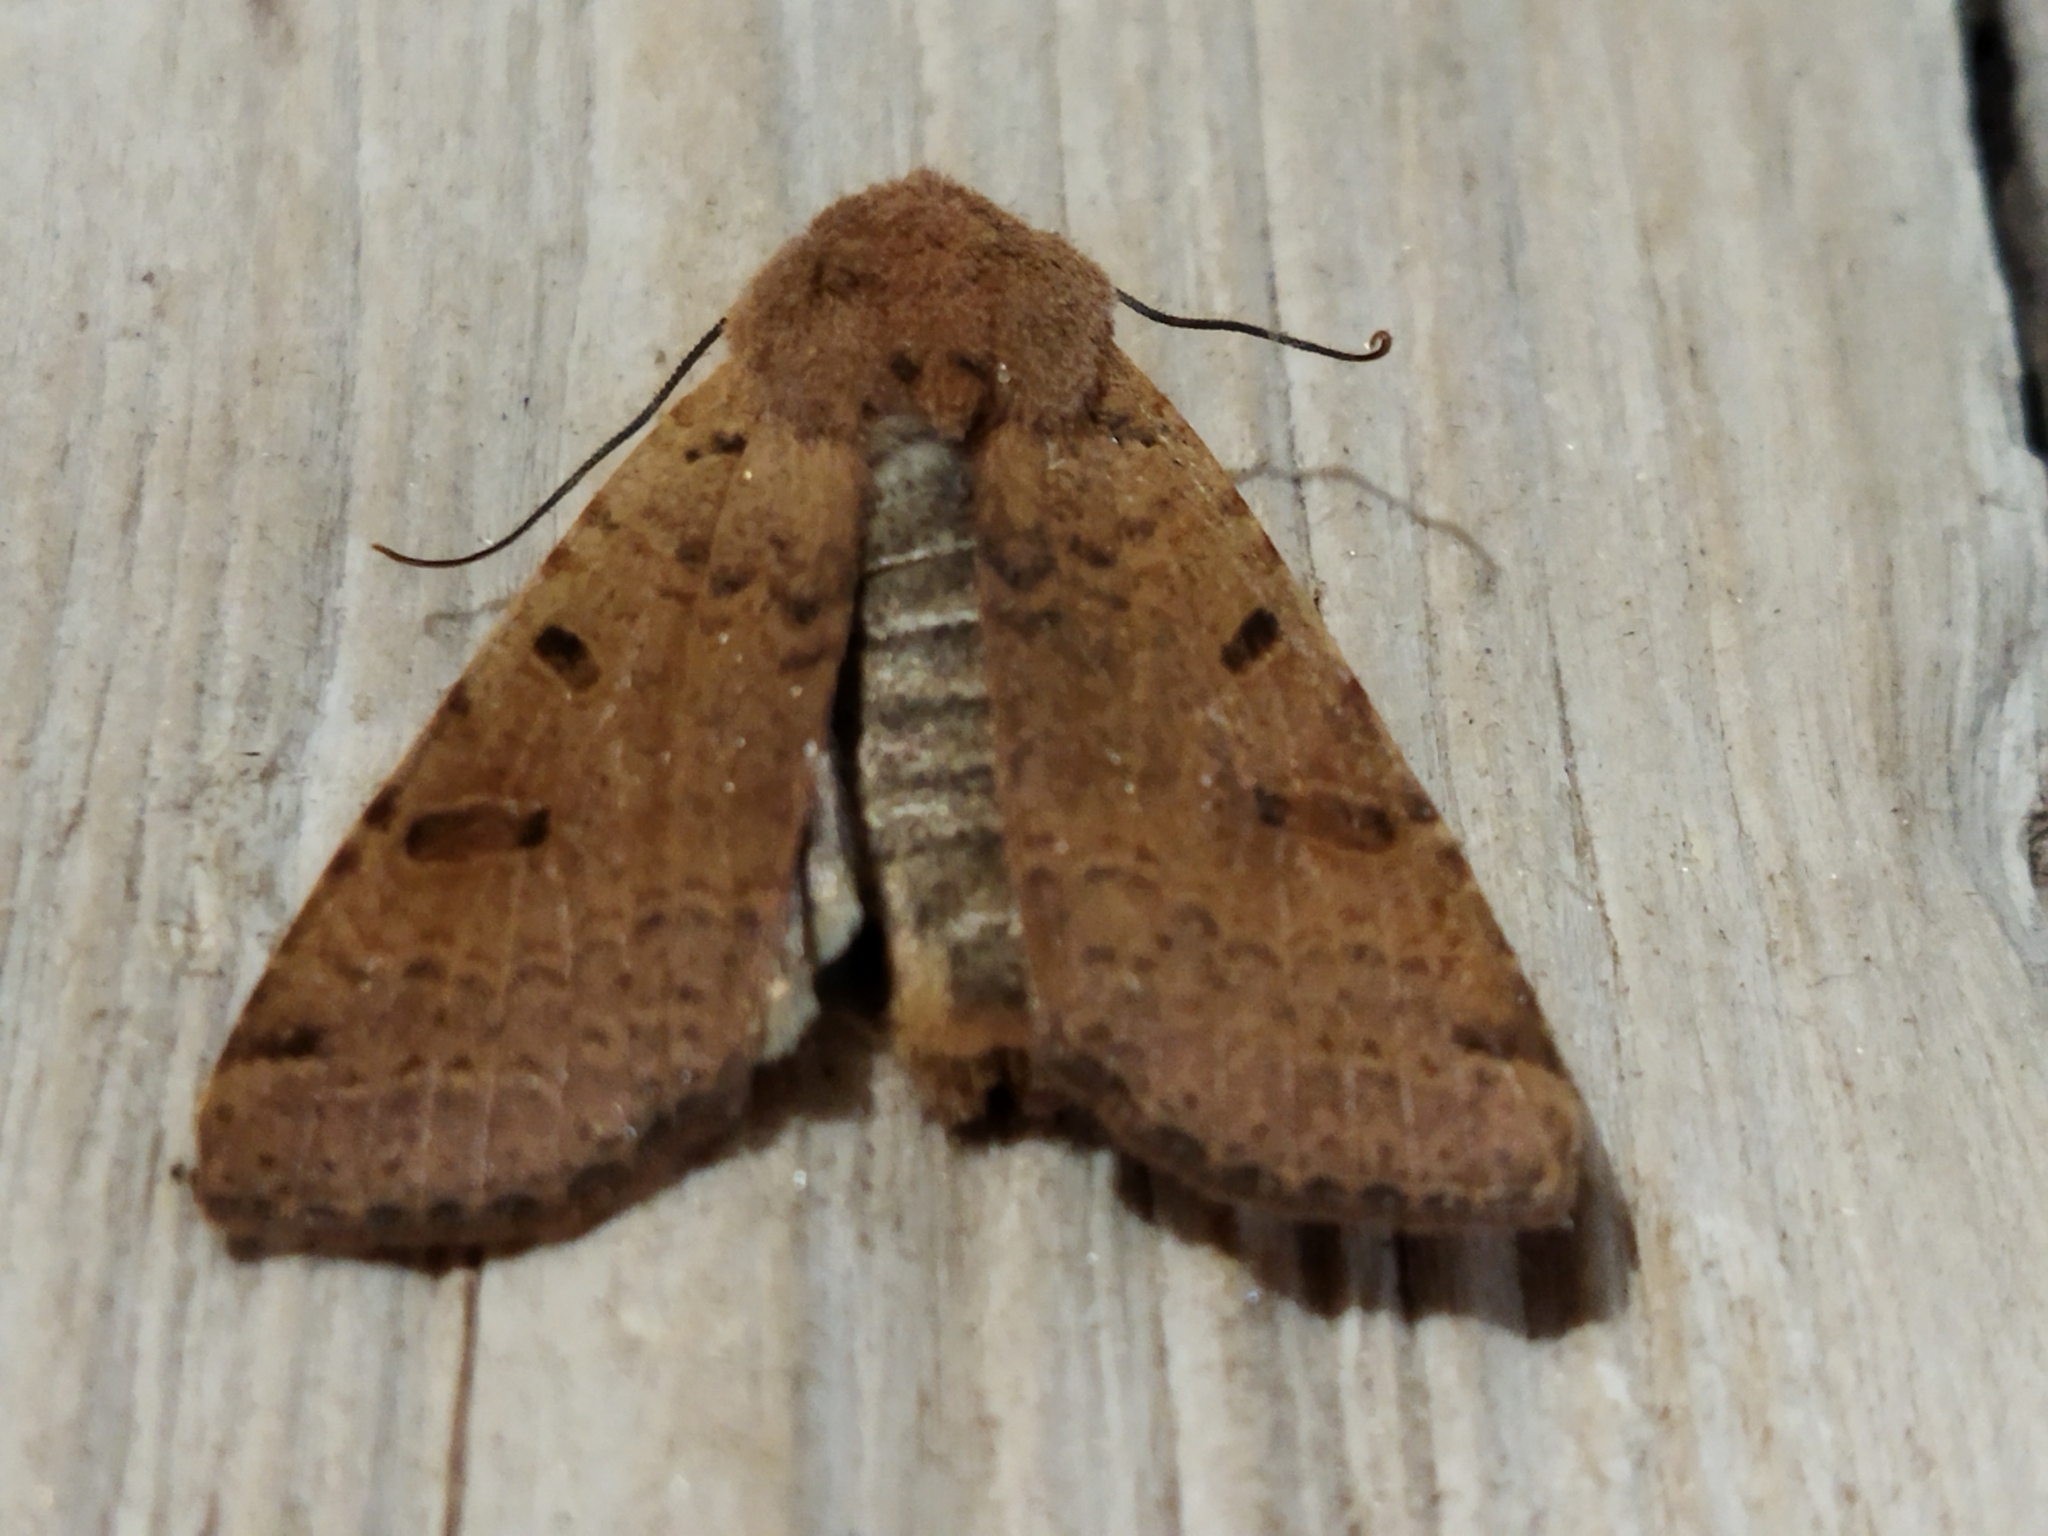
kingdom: Animalia
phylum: Arthropoda
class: Insecta
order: Lepidoptera
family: Noctuidae
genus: Agrochola
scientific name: Agrochola lychnidis
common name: Beaded chestnut
